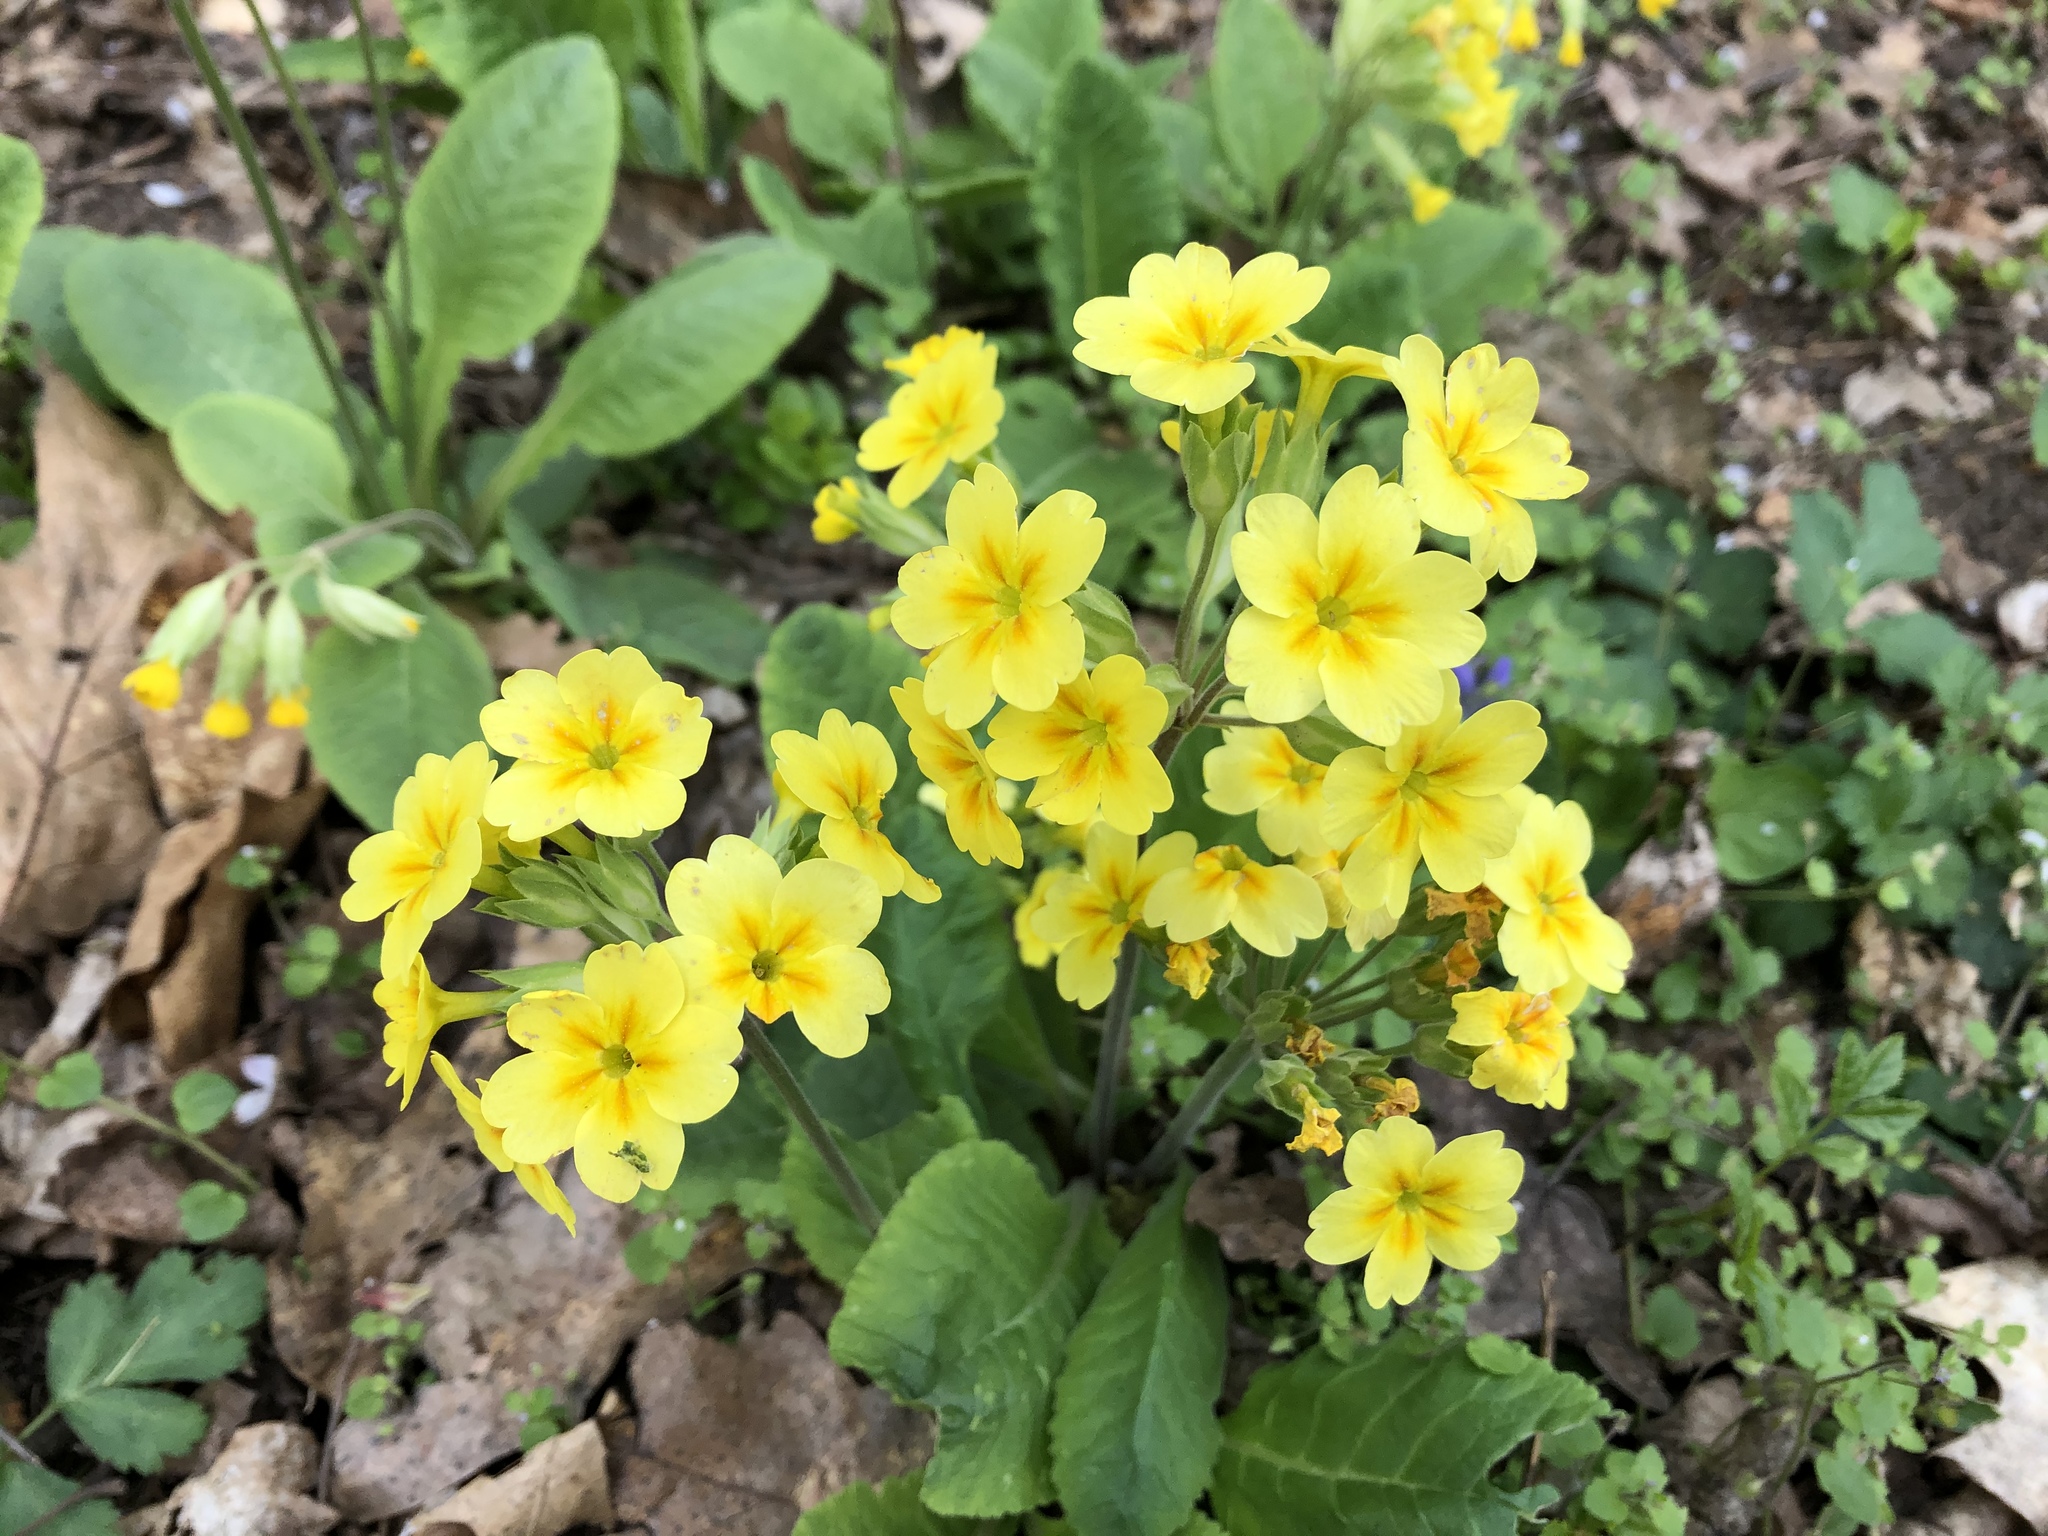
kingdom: Plantae
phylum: Tracheophyta
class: Magnoliopsida
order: Ericales
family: Primulaceae
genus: Primula
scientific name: Primula veris
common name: Cowslip
